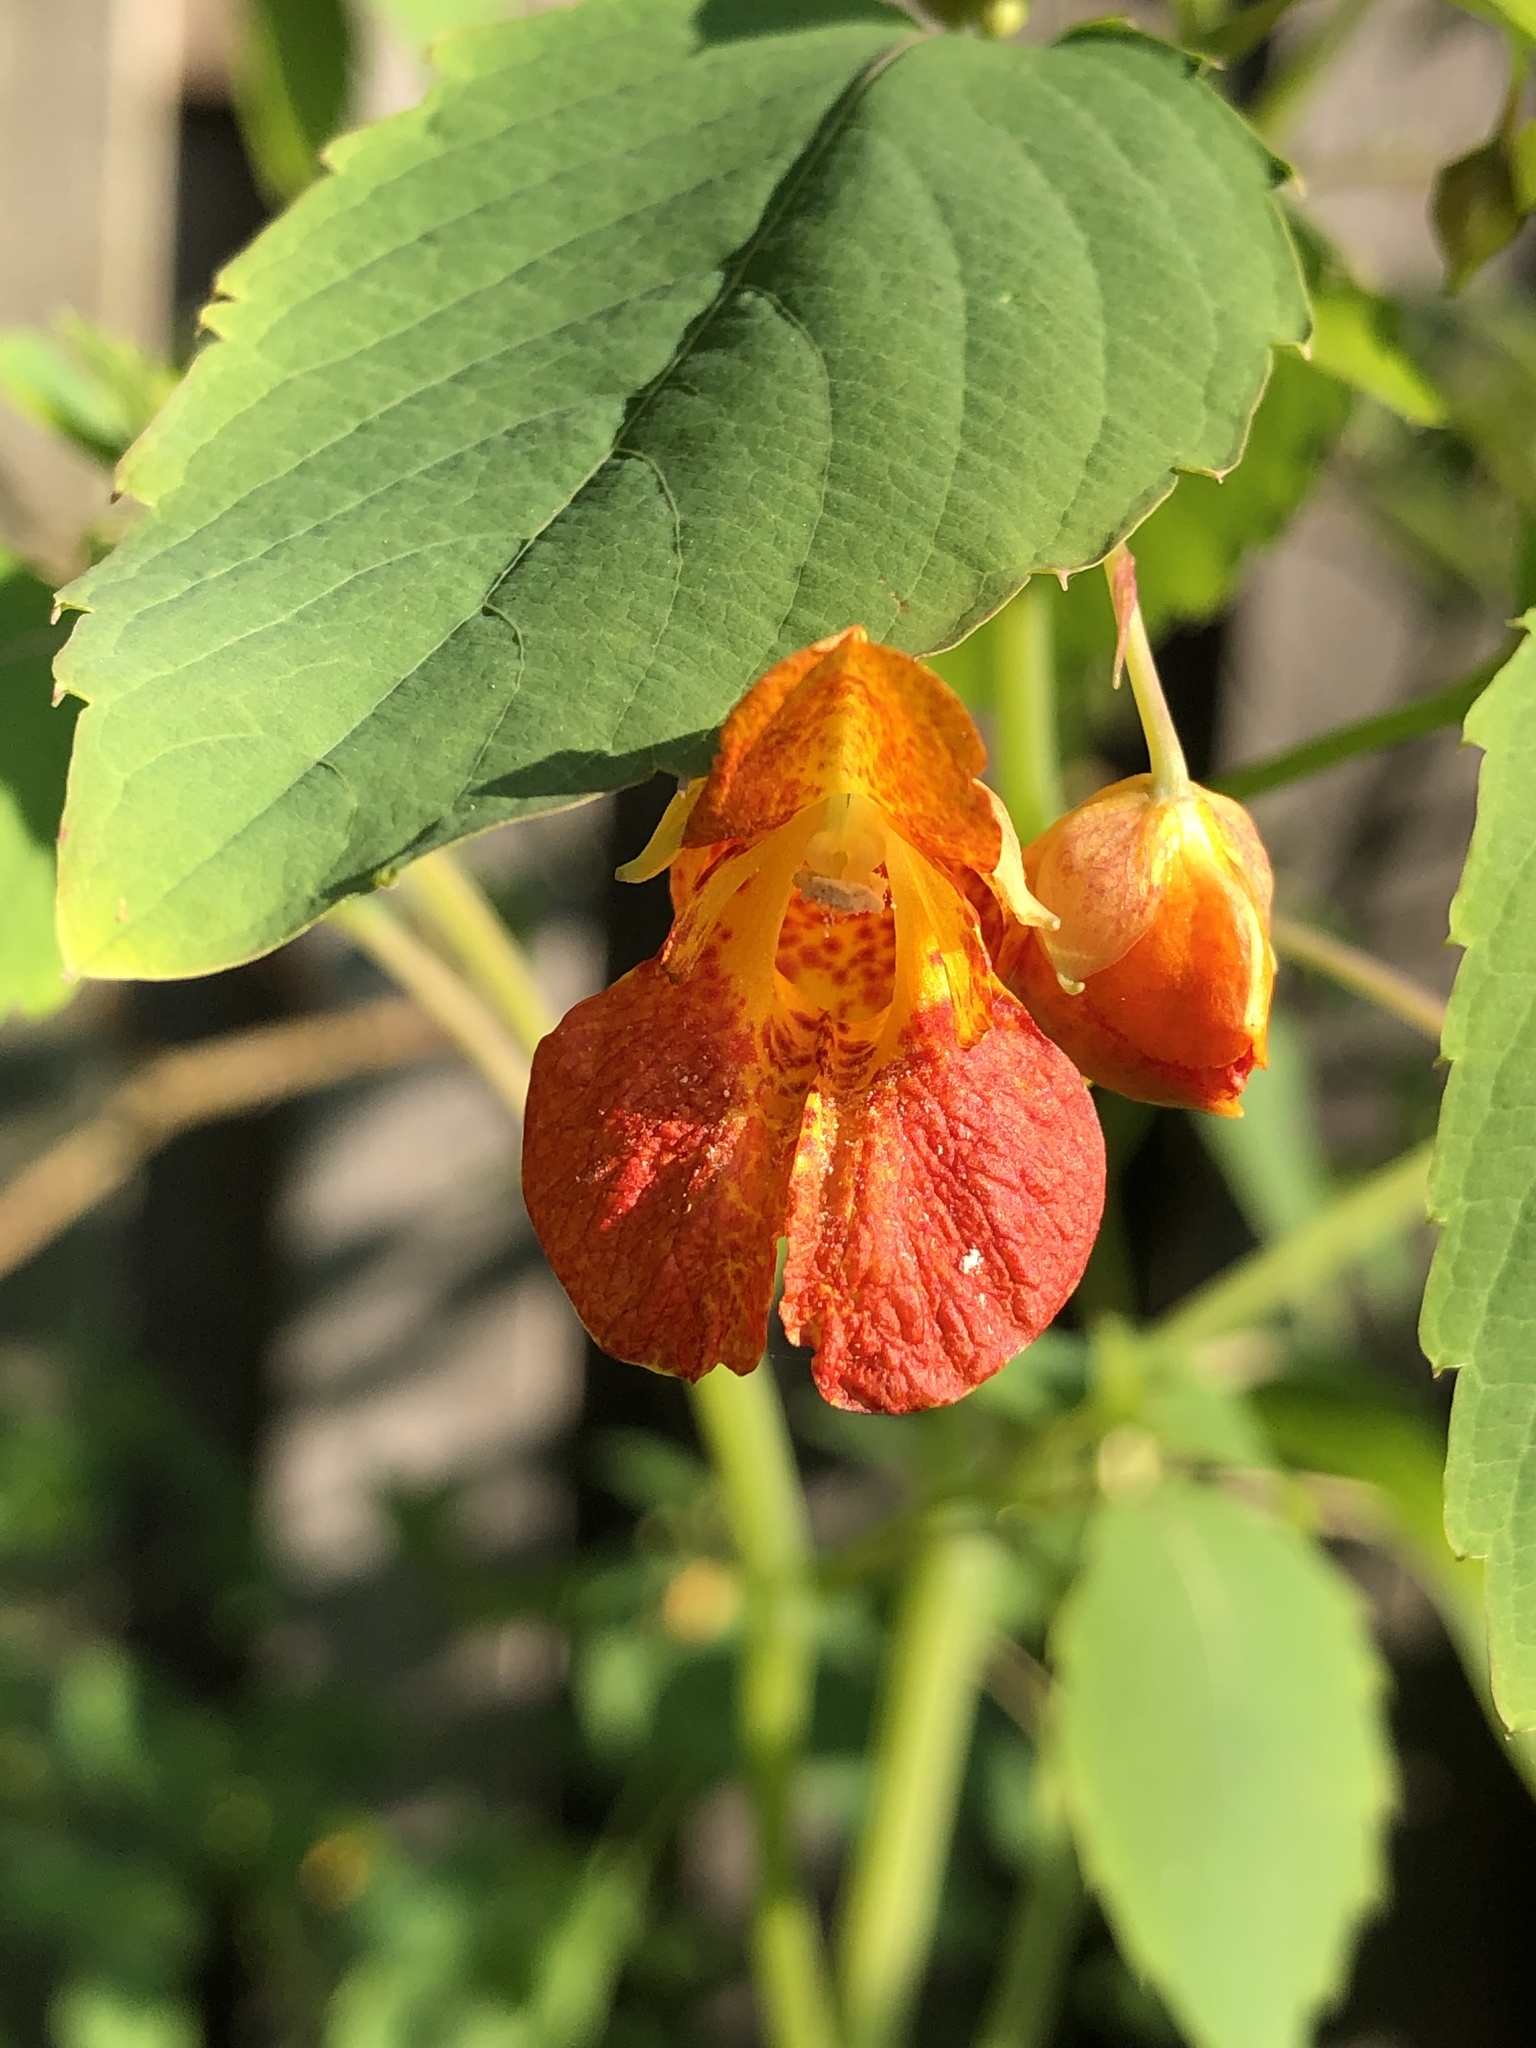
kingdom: Plantae
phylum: Tracheophyta
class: Magnoliopsida
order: Ericales
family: Balsaminaceae
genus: Impatiens
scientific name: Impatiens capensis
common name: Orange balsam
